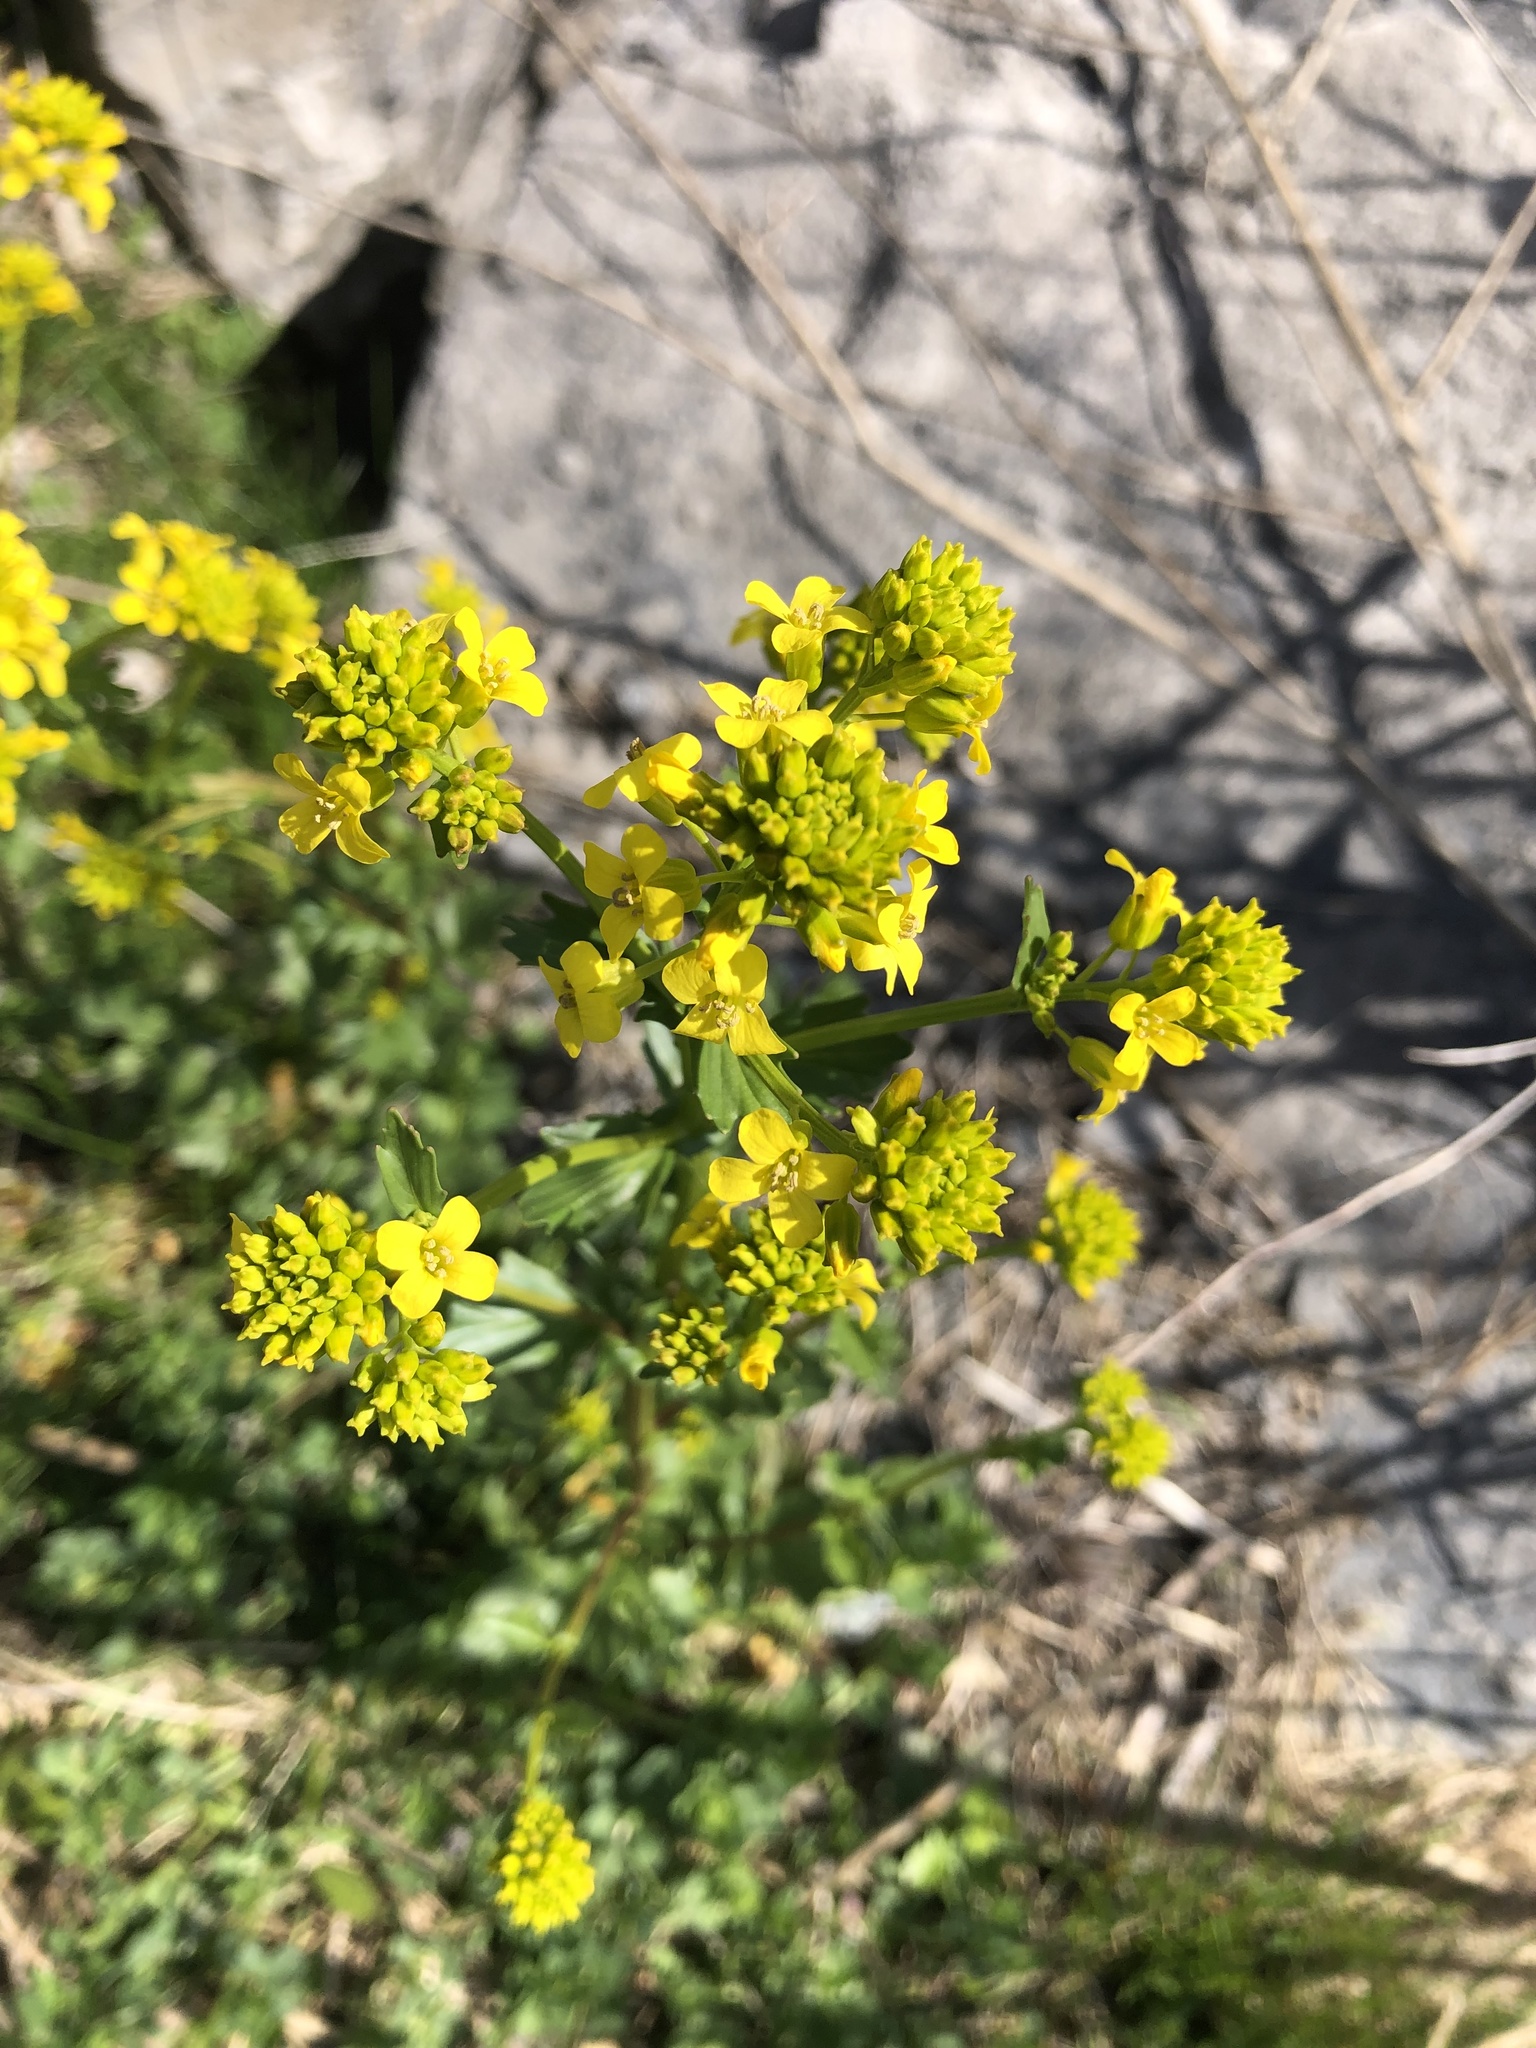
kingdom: Plantae
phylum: Tracheophyta
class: Magnoliopsida
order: Brassicales
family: Brassicaceae
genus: Barbarea
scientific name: Barbarea vulgaris
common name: Cressy-greens
